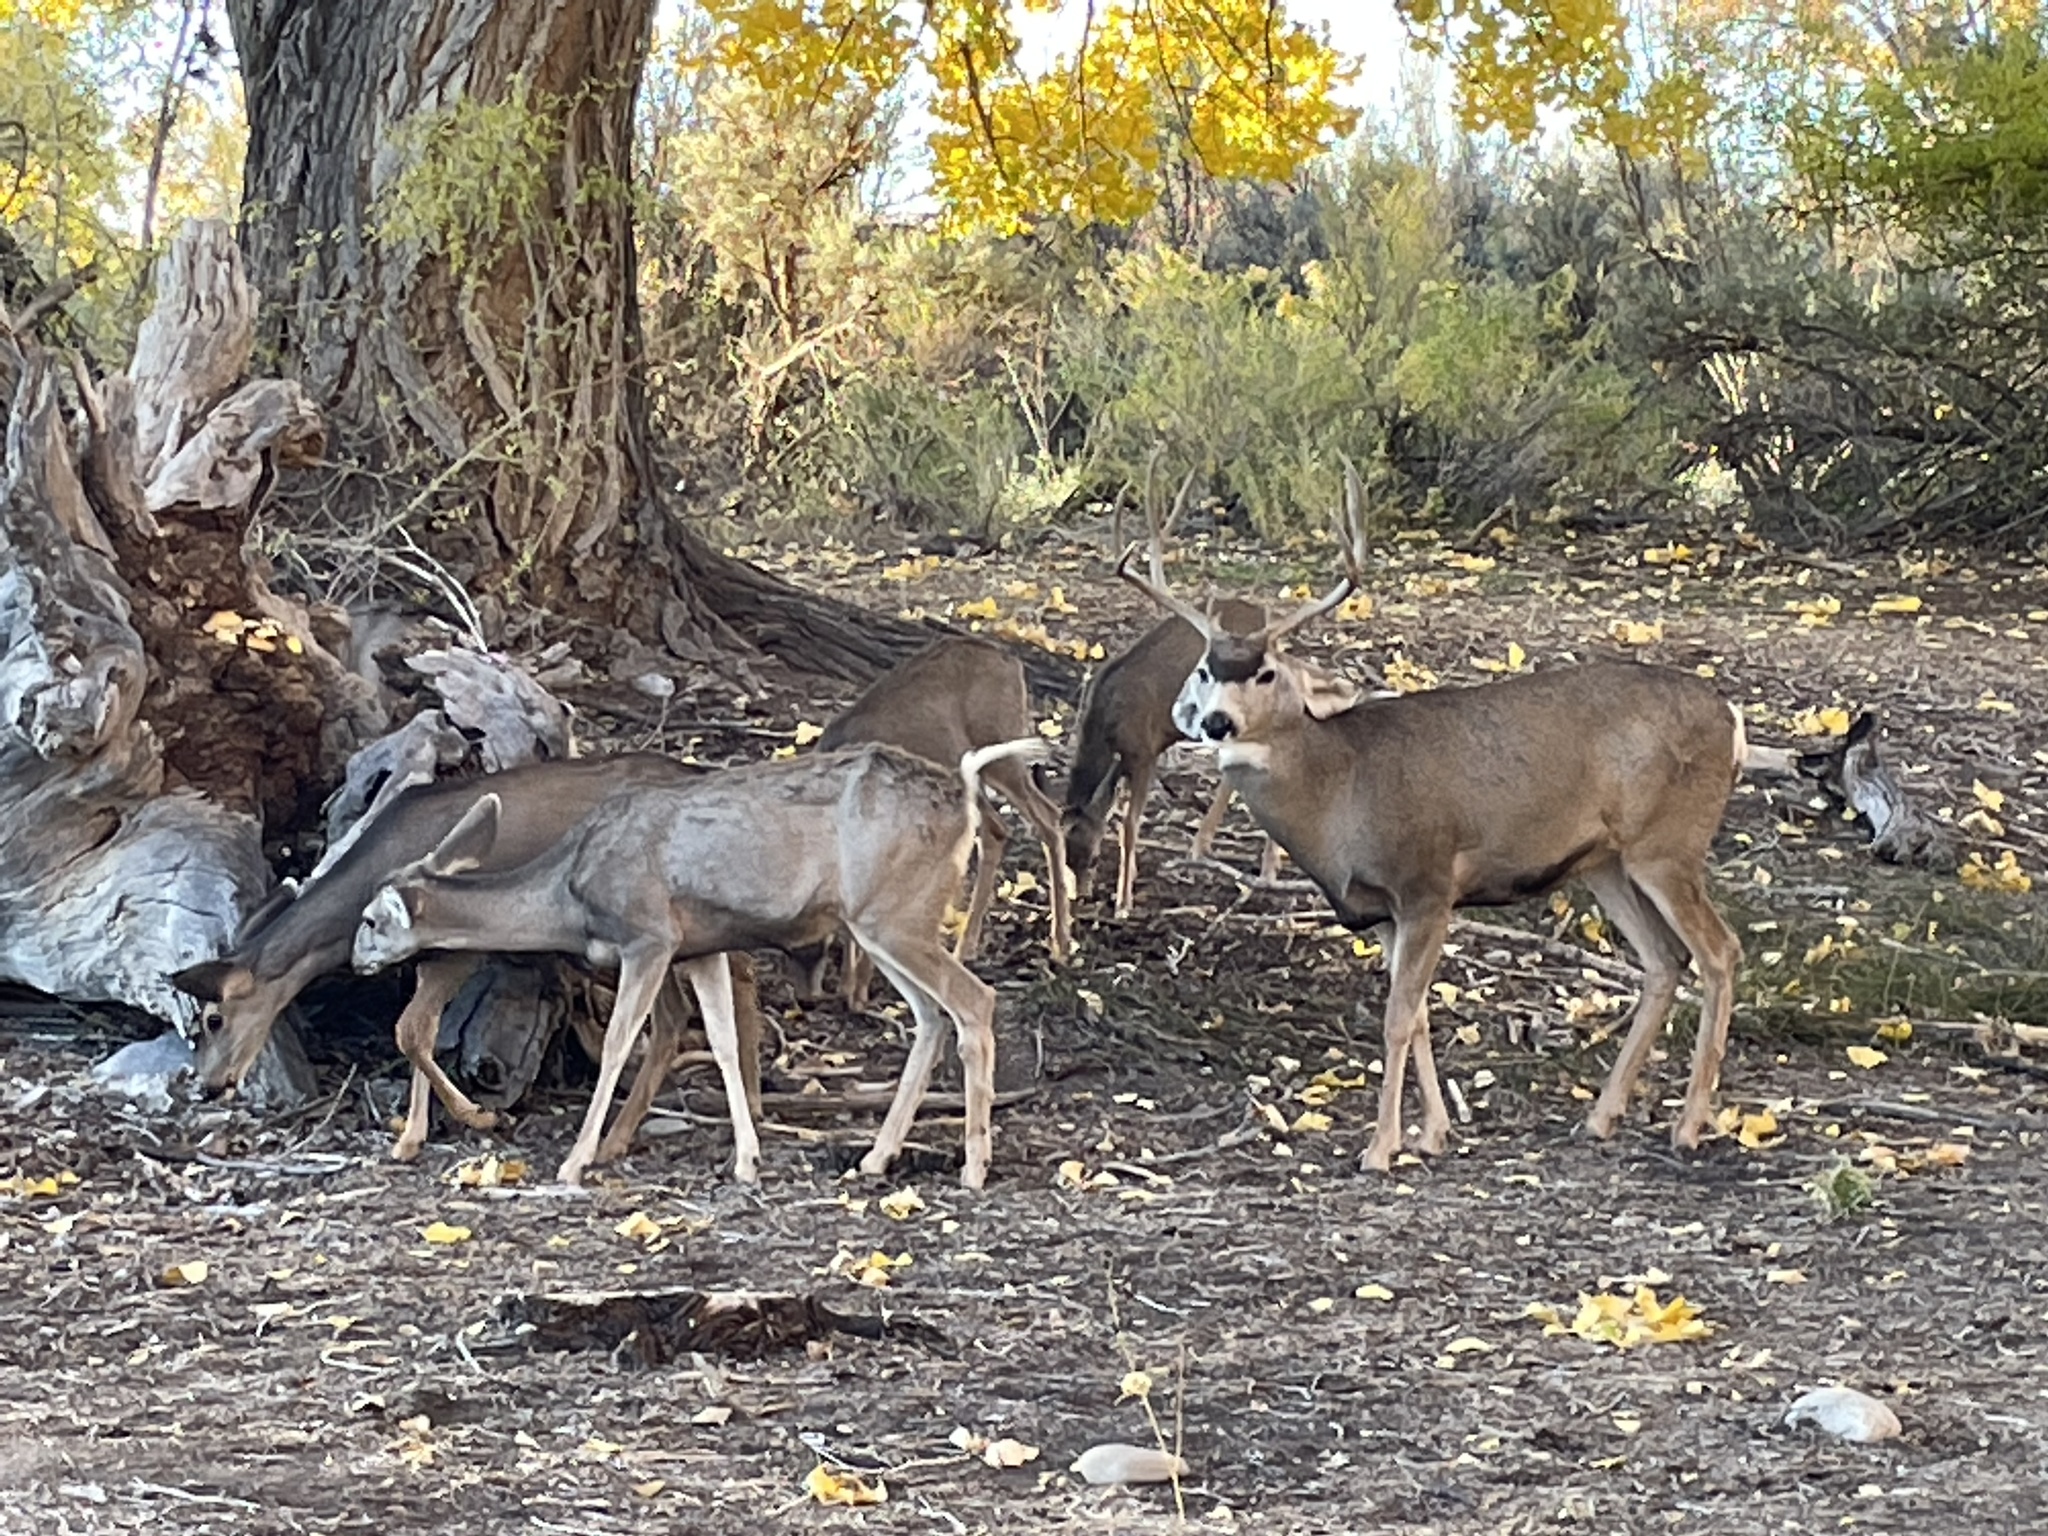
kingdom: Animalia
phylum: Chordata
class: Mammalia
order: Artiodactyla
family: Cervidae
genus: Odocoileus
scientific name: Odocoileus hemionus
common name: Mule deer
